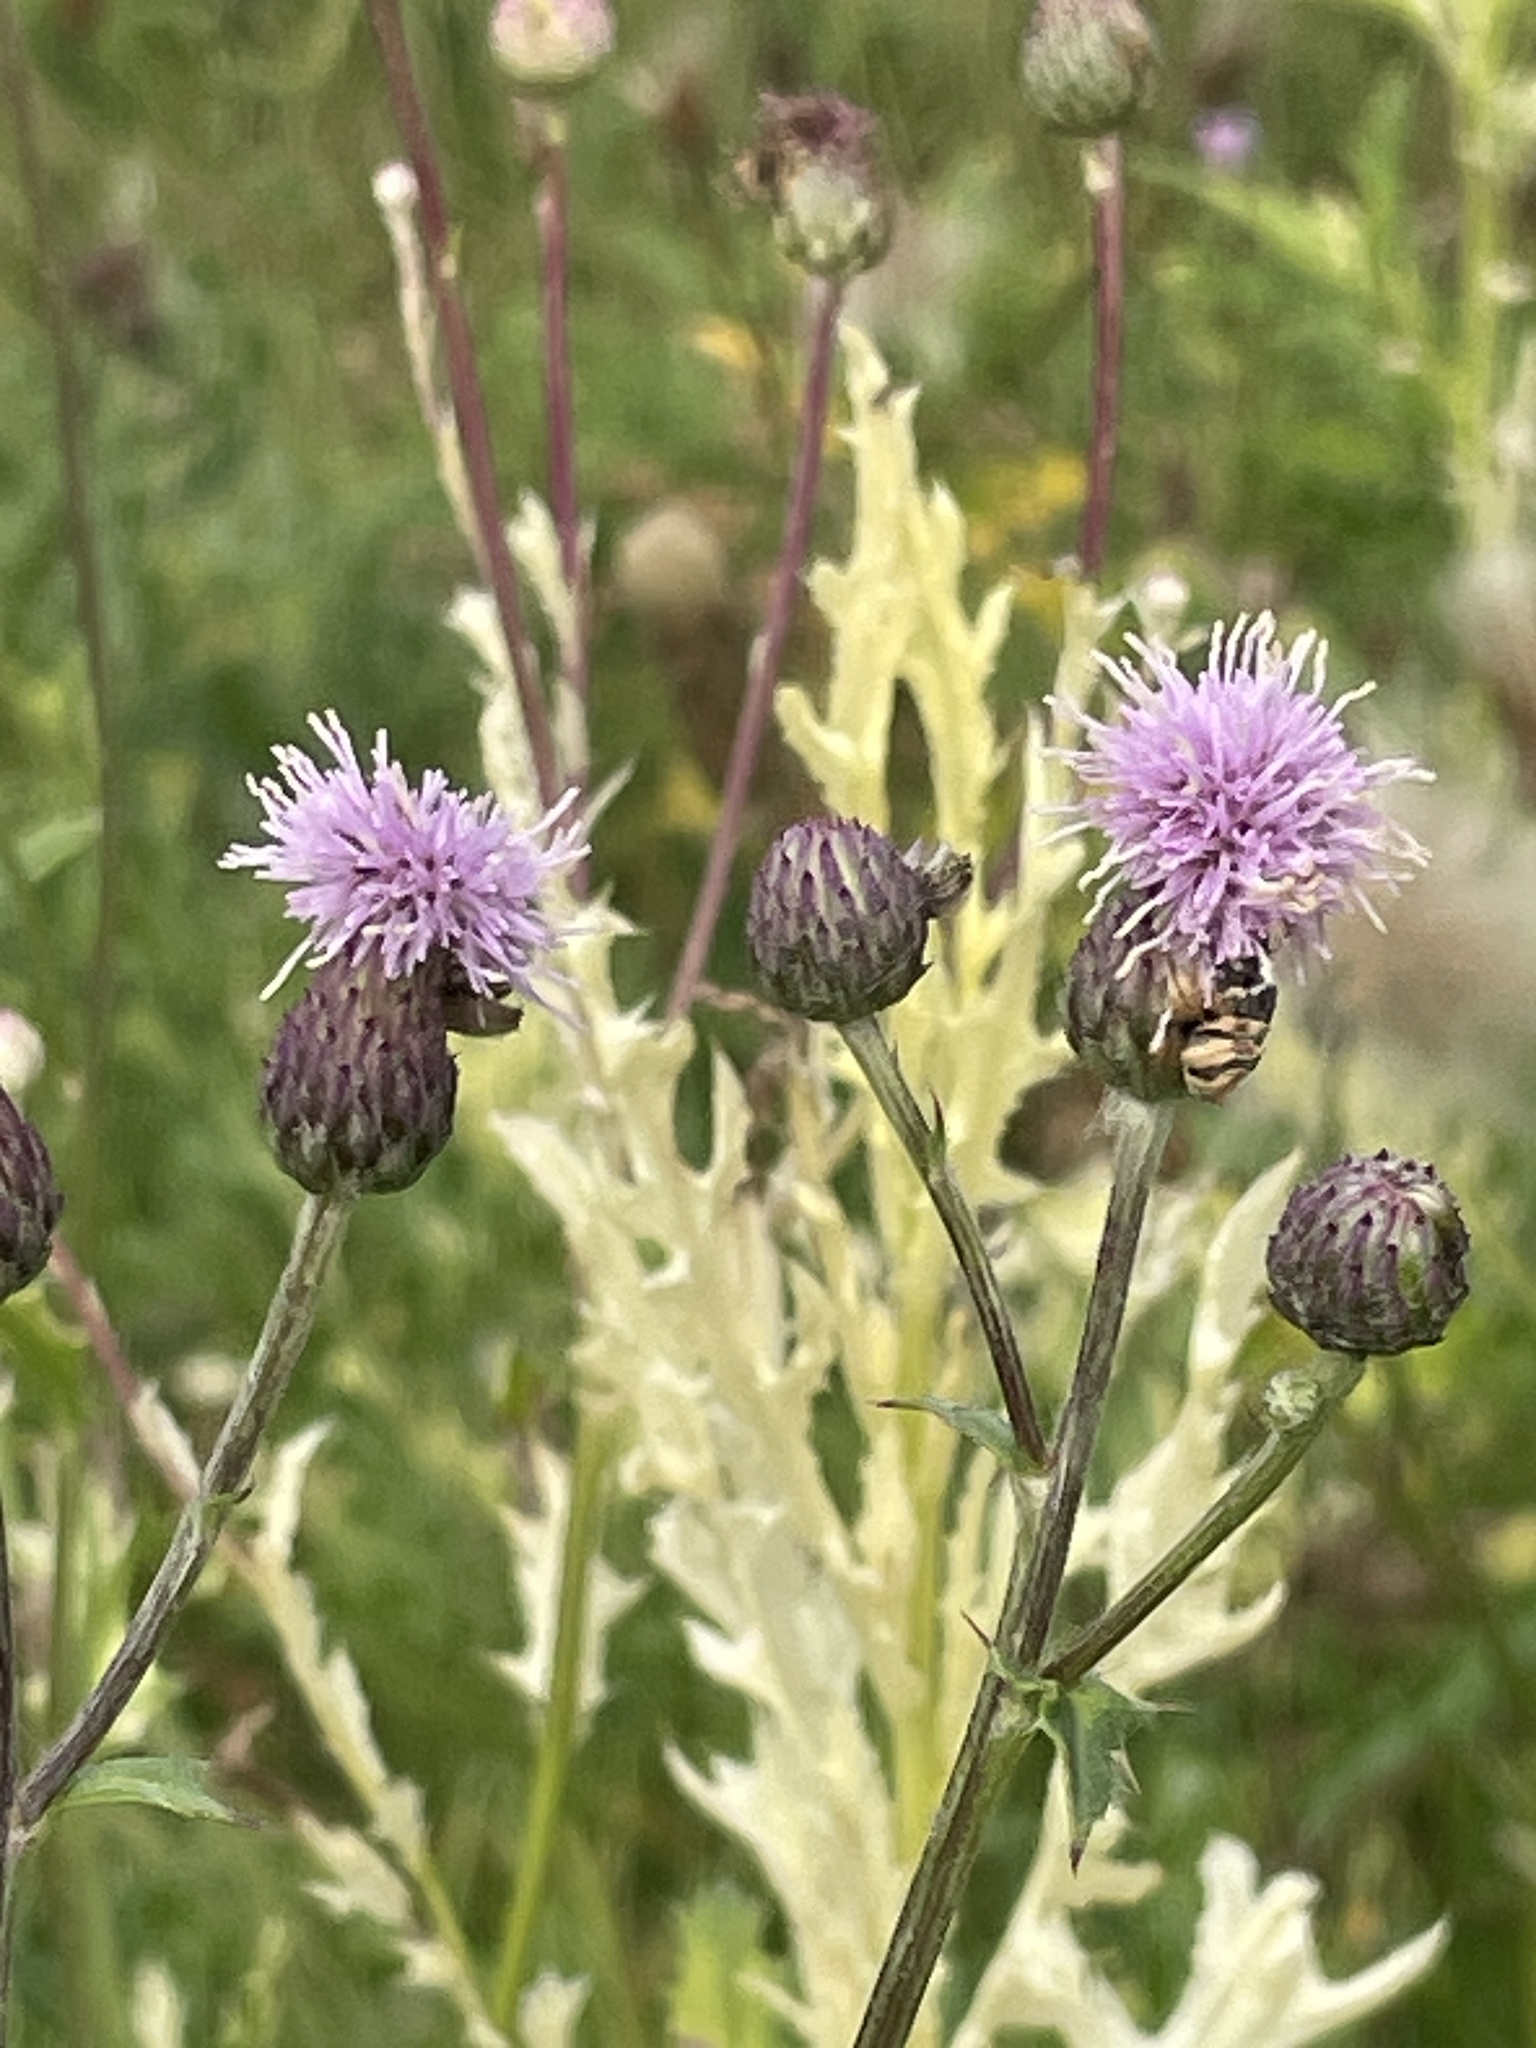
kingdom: Plantae
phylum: Tracheophyta
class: Magnoliopsida
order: Asterales
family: Asteraceae
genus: Cirsium
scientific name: Cirsium arvense
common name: Creeping thistle
